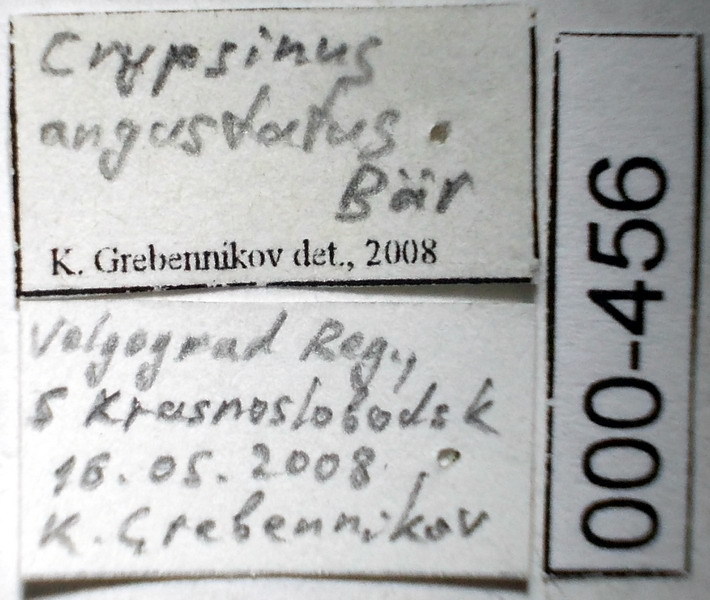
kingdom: Animalia
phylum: Arthropoda
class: Insecta
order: Hemiptera
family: Pentatomidae
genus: Crypsinus
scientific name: Crypsinus angustatus
